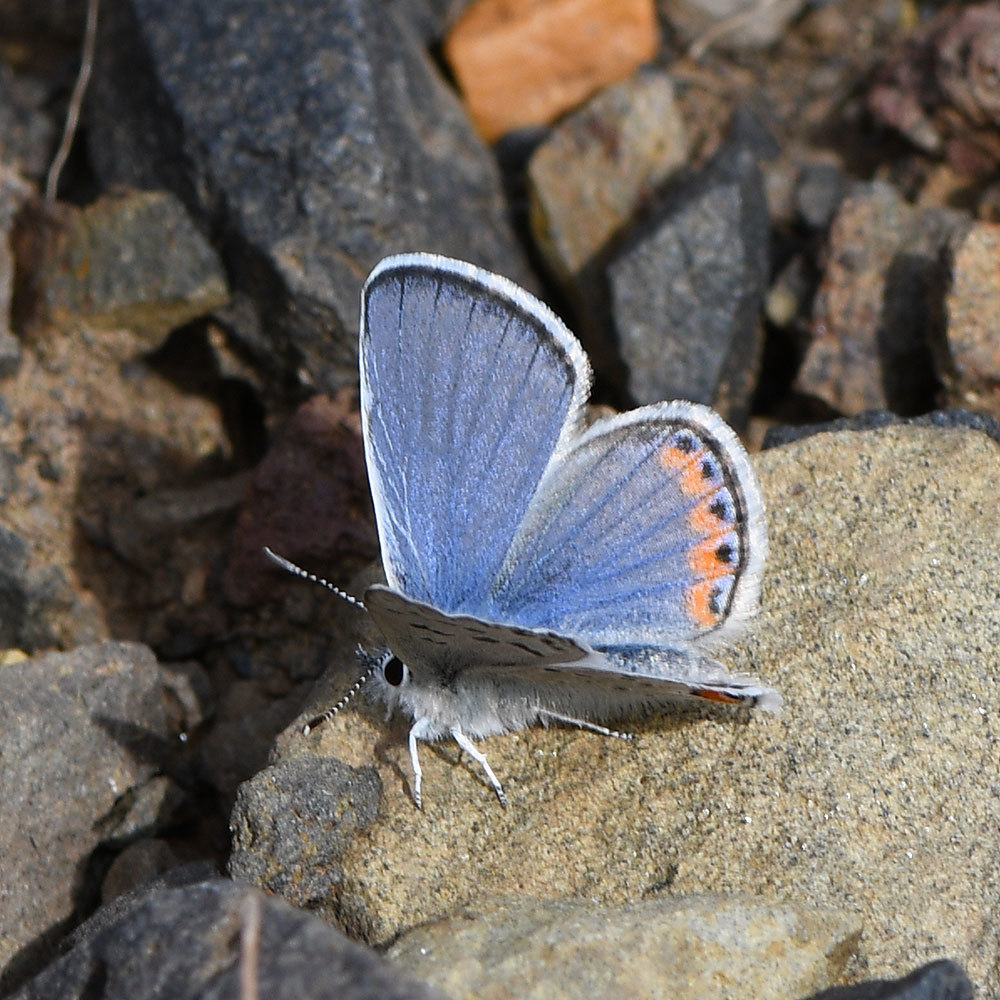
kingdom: Animalia
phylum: Arthropoda
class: Insecta
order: Lepidoptera
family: Lycaenidae
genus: Icaricia
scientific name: Icaricia acmon
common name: Acmon blue
